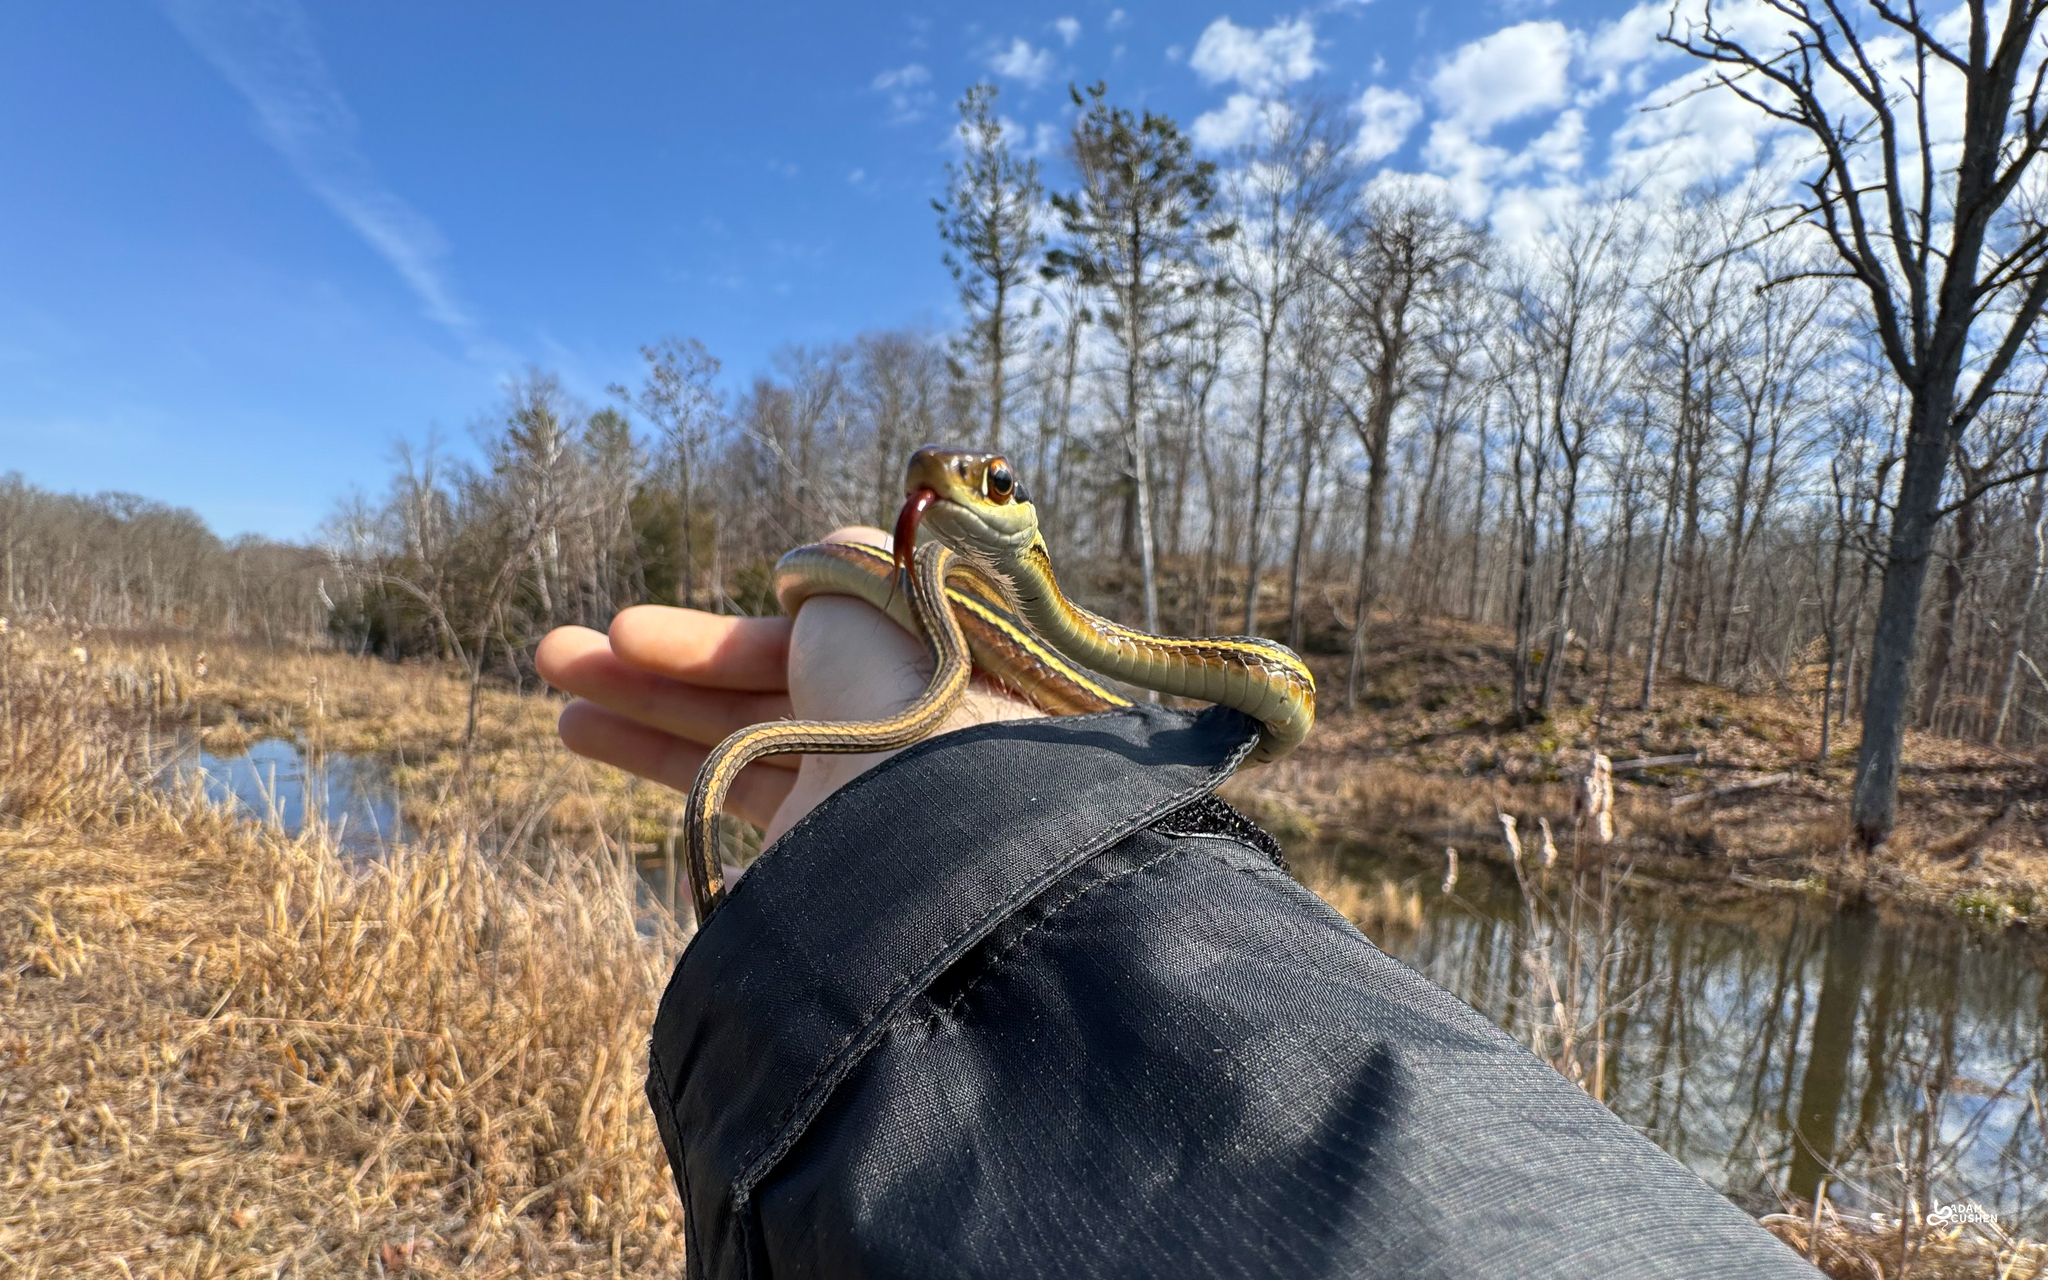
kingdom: Animalia
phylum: Chordata
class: Squamata
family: Colubridae
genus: Thamnophis
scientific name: Thamnophis saurita
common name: Eastern ribbonsnake
